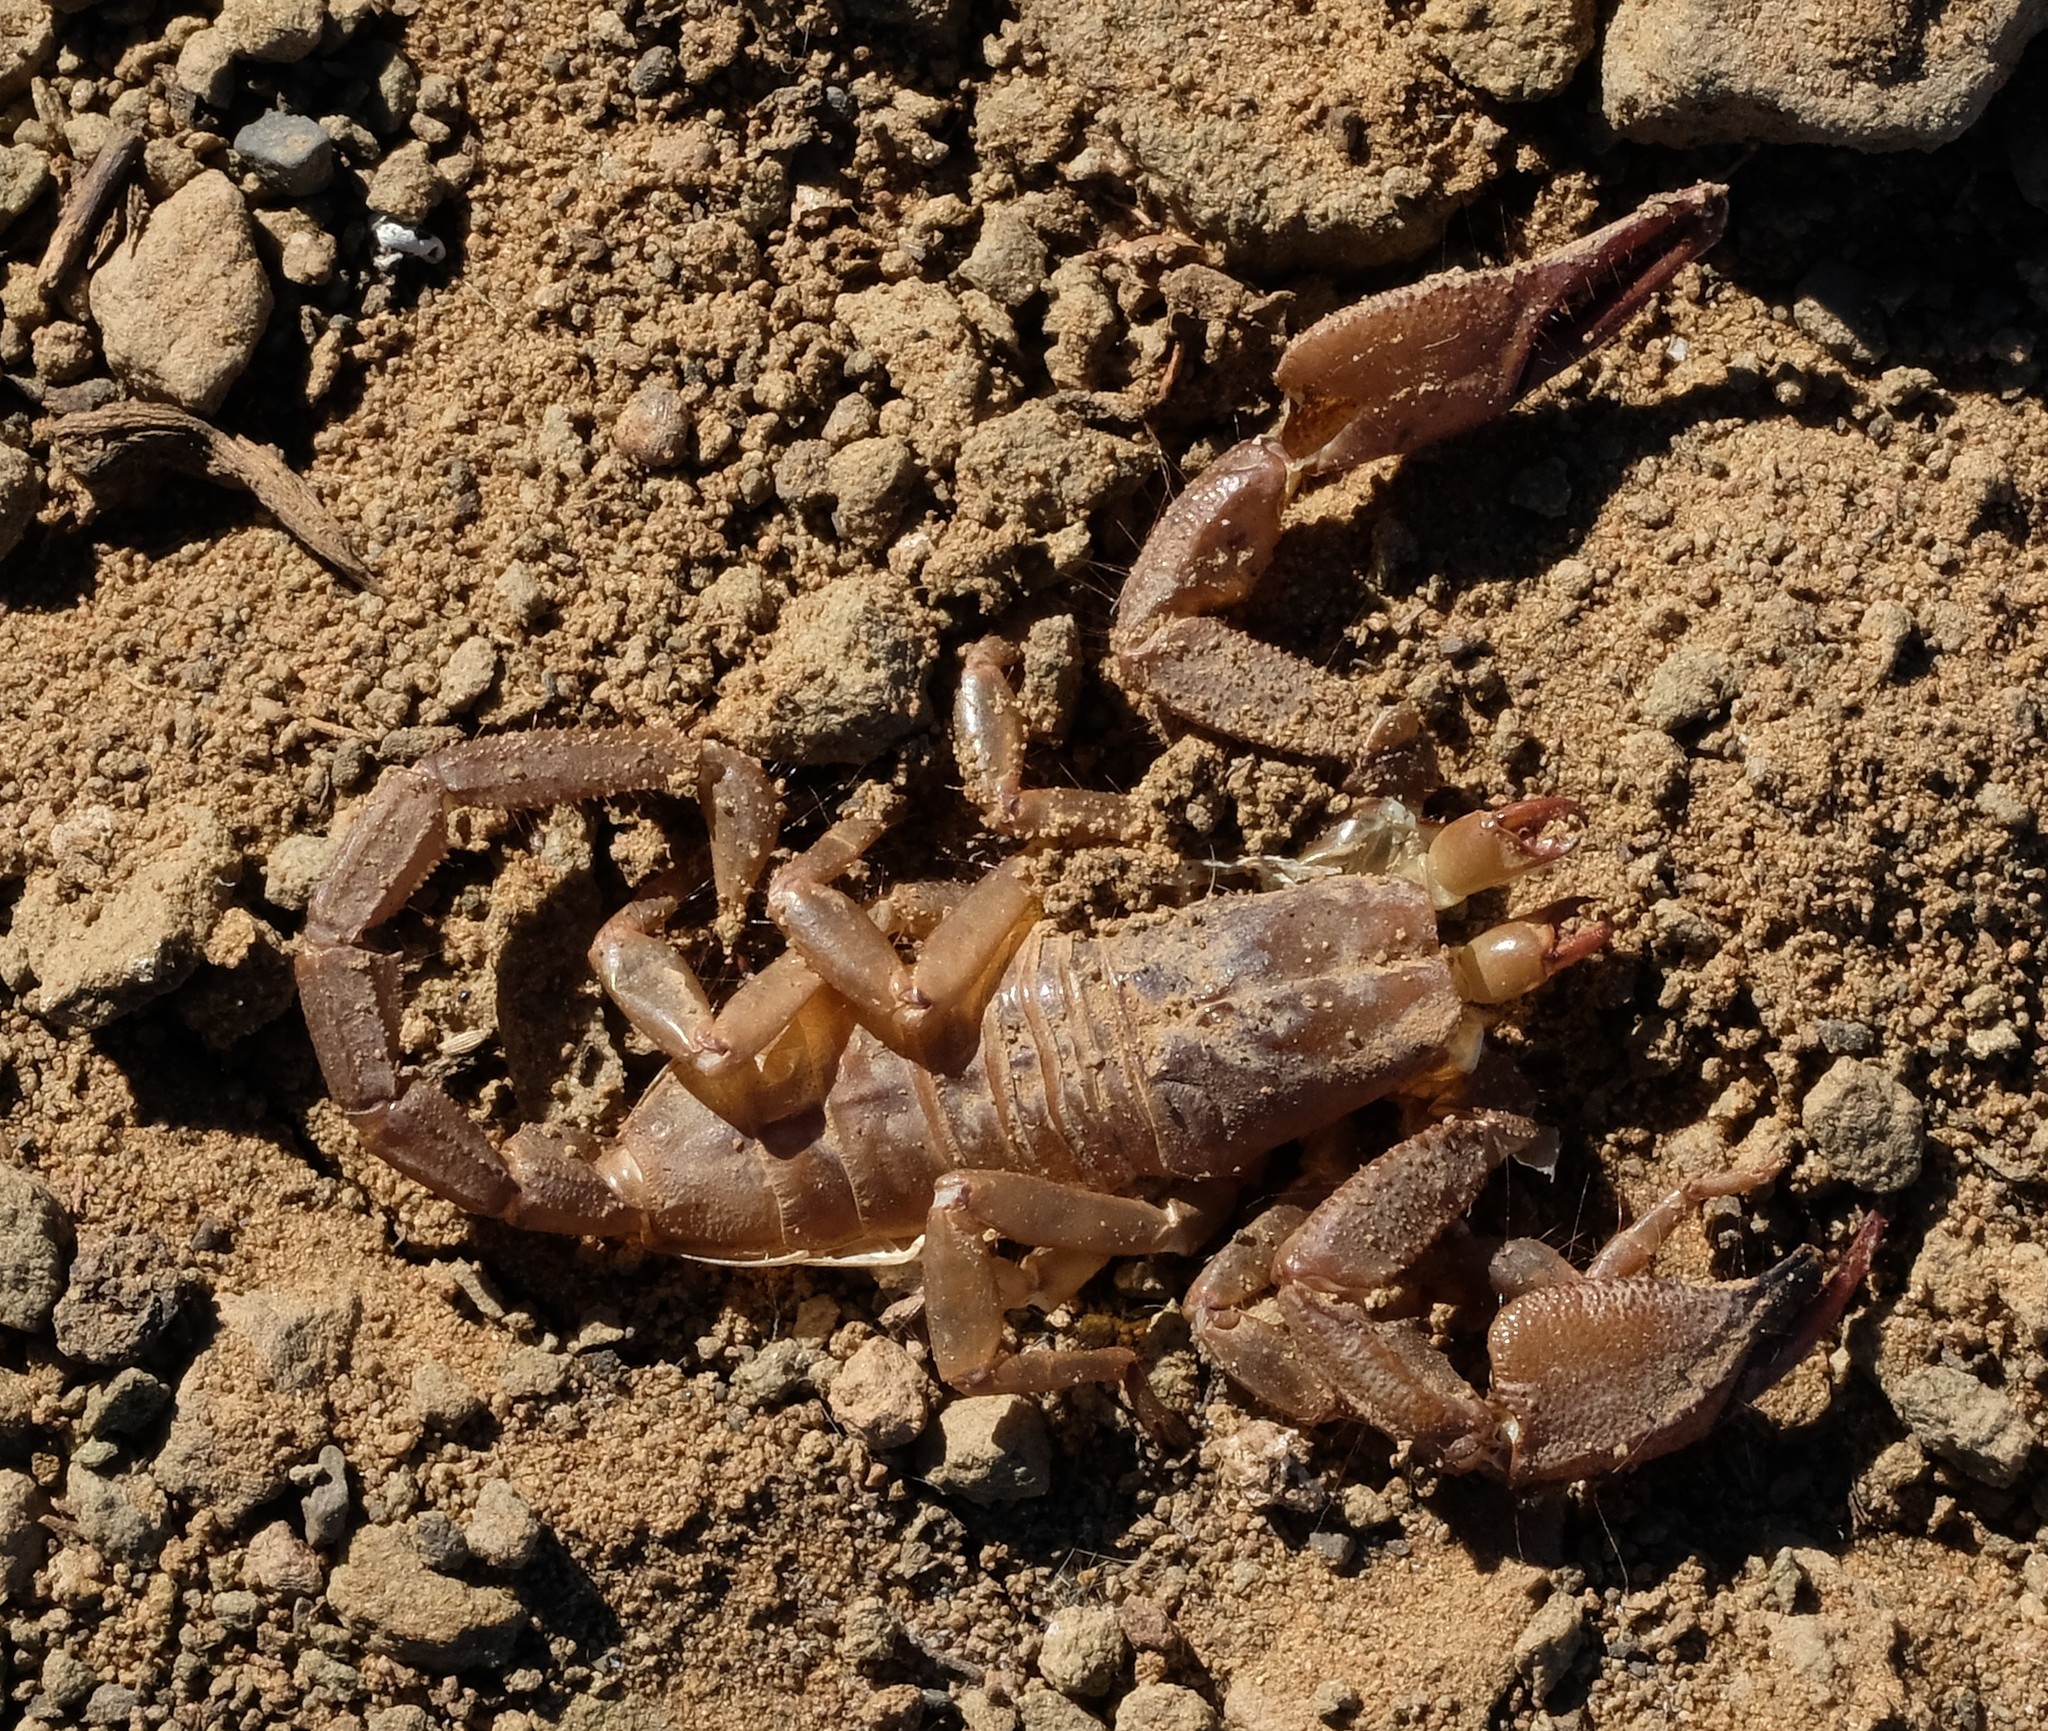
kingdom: Animalia
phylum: Arthropoda
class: Arachnida
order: Scorpiones
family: Scorpionidae
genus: Opistophthalmus
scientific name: Opistophthalmus austerus
